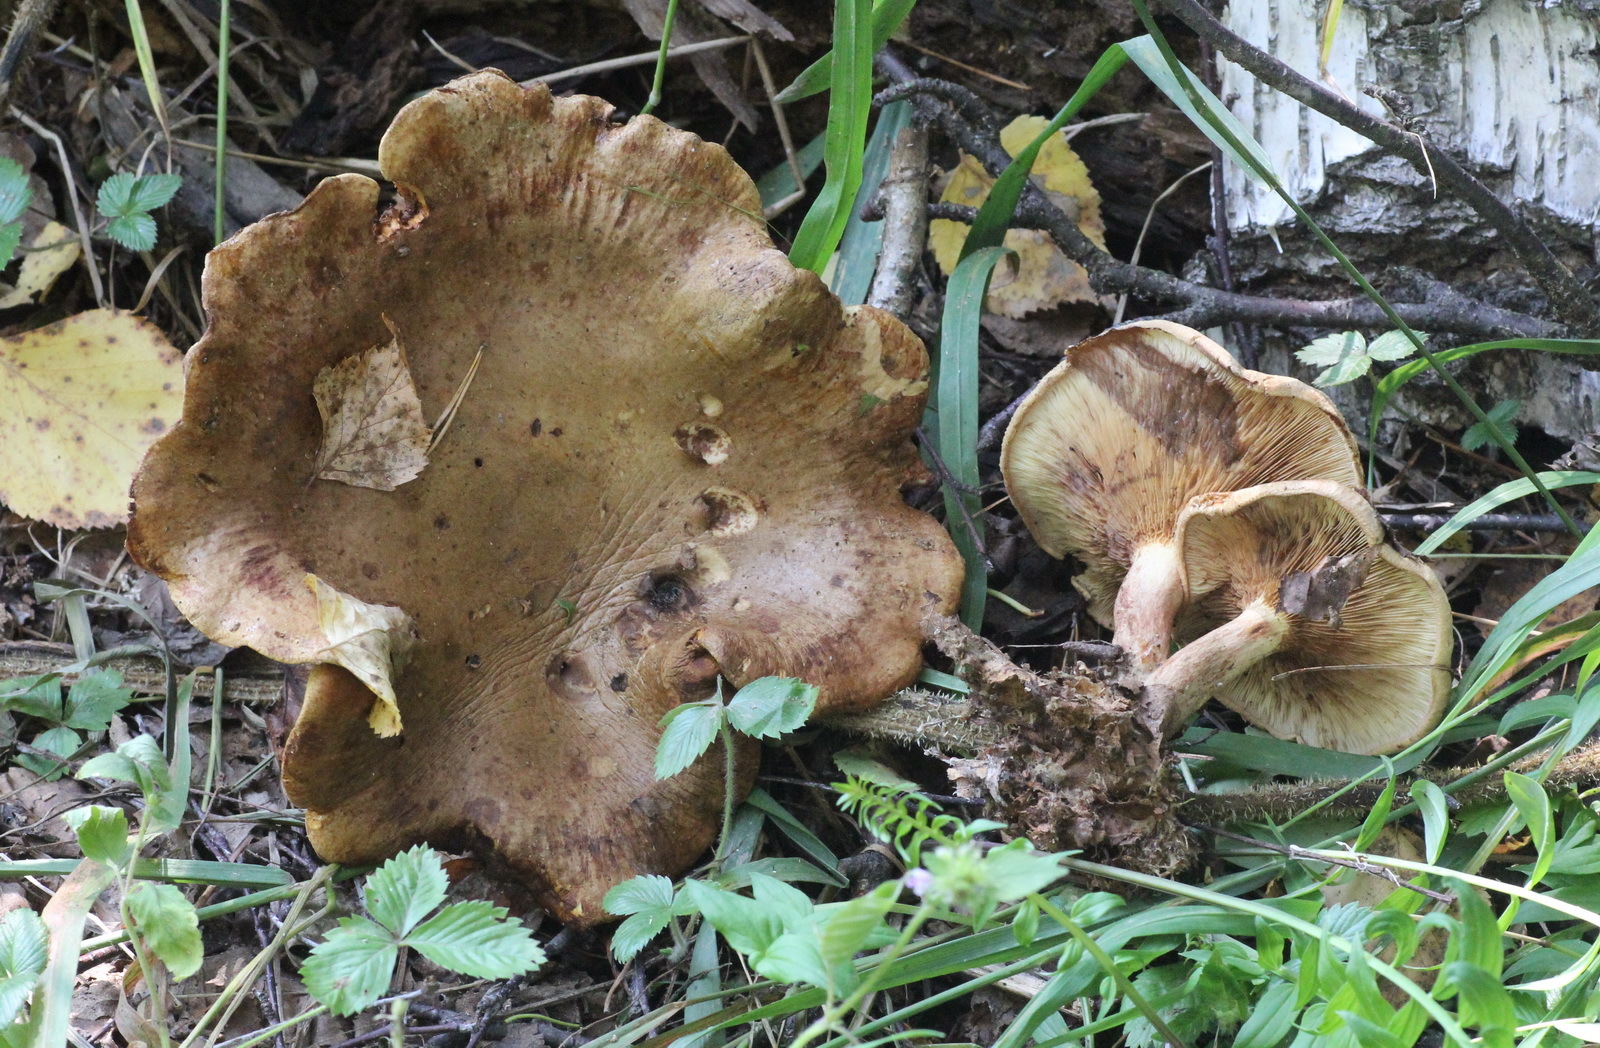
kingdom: Fungi
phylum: Basidiomycota
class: Agaricomycetes
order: Boletales
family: Paxillaceae
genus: Paxillus
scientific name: Paxillus involutus
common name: Brown roll rim
